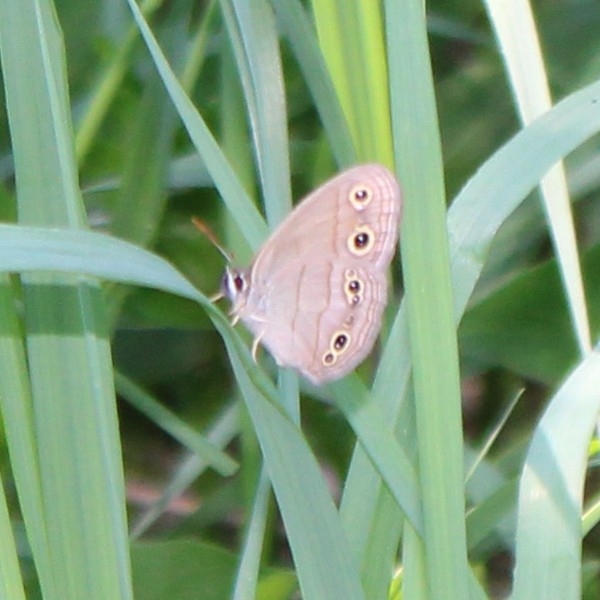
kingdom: Animalia
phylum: Arthropoda
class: Insecta
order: Lepidoptera
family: Nymphalidae
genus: Euptychia
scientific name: Euptychia cymela
